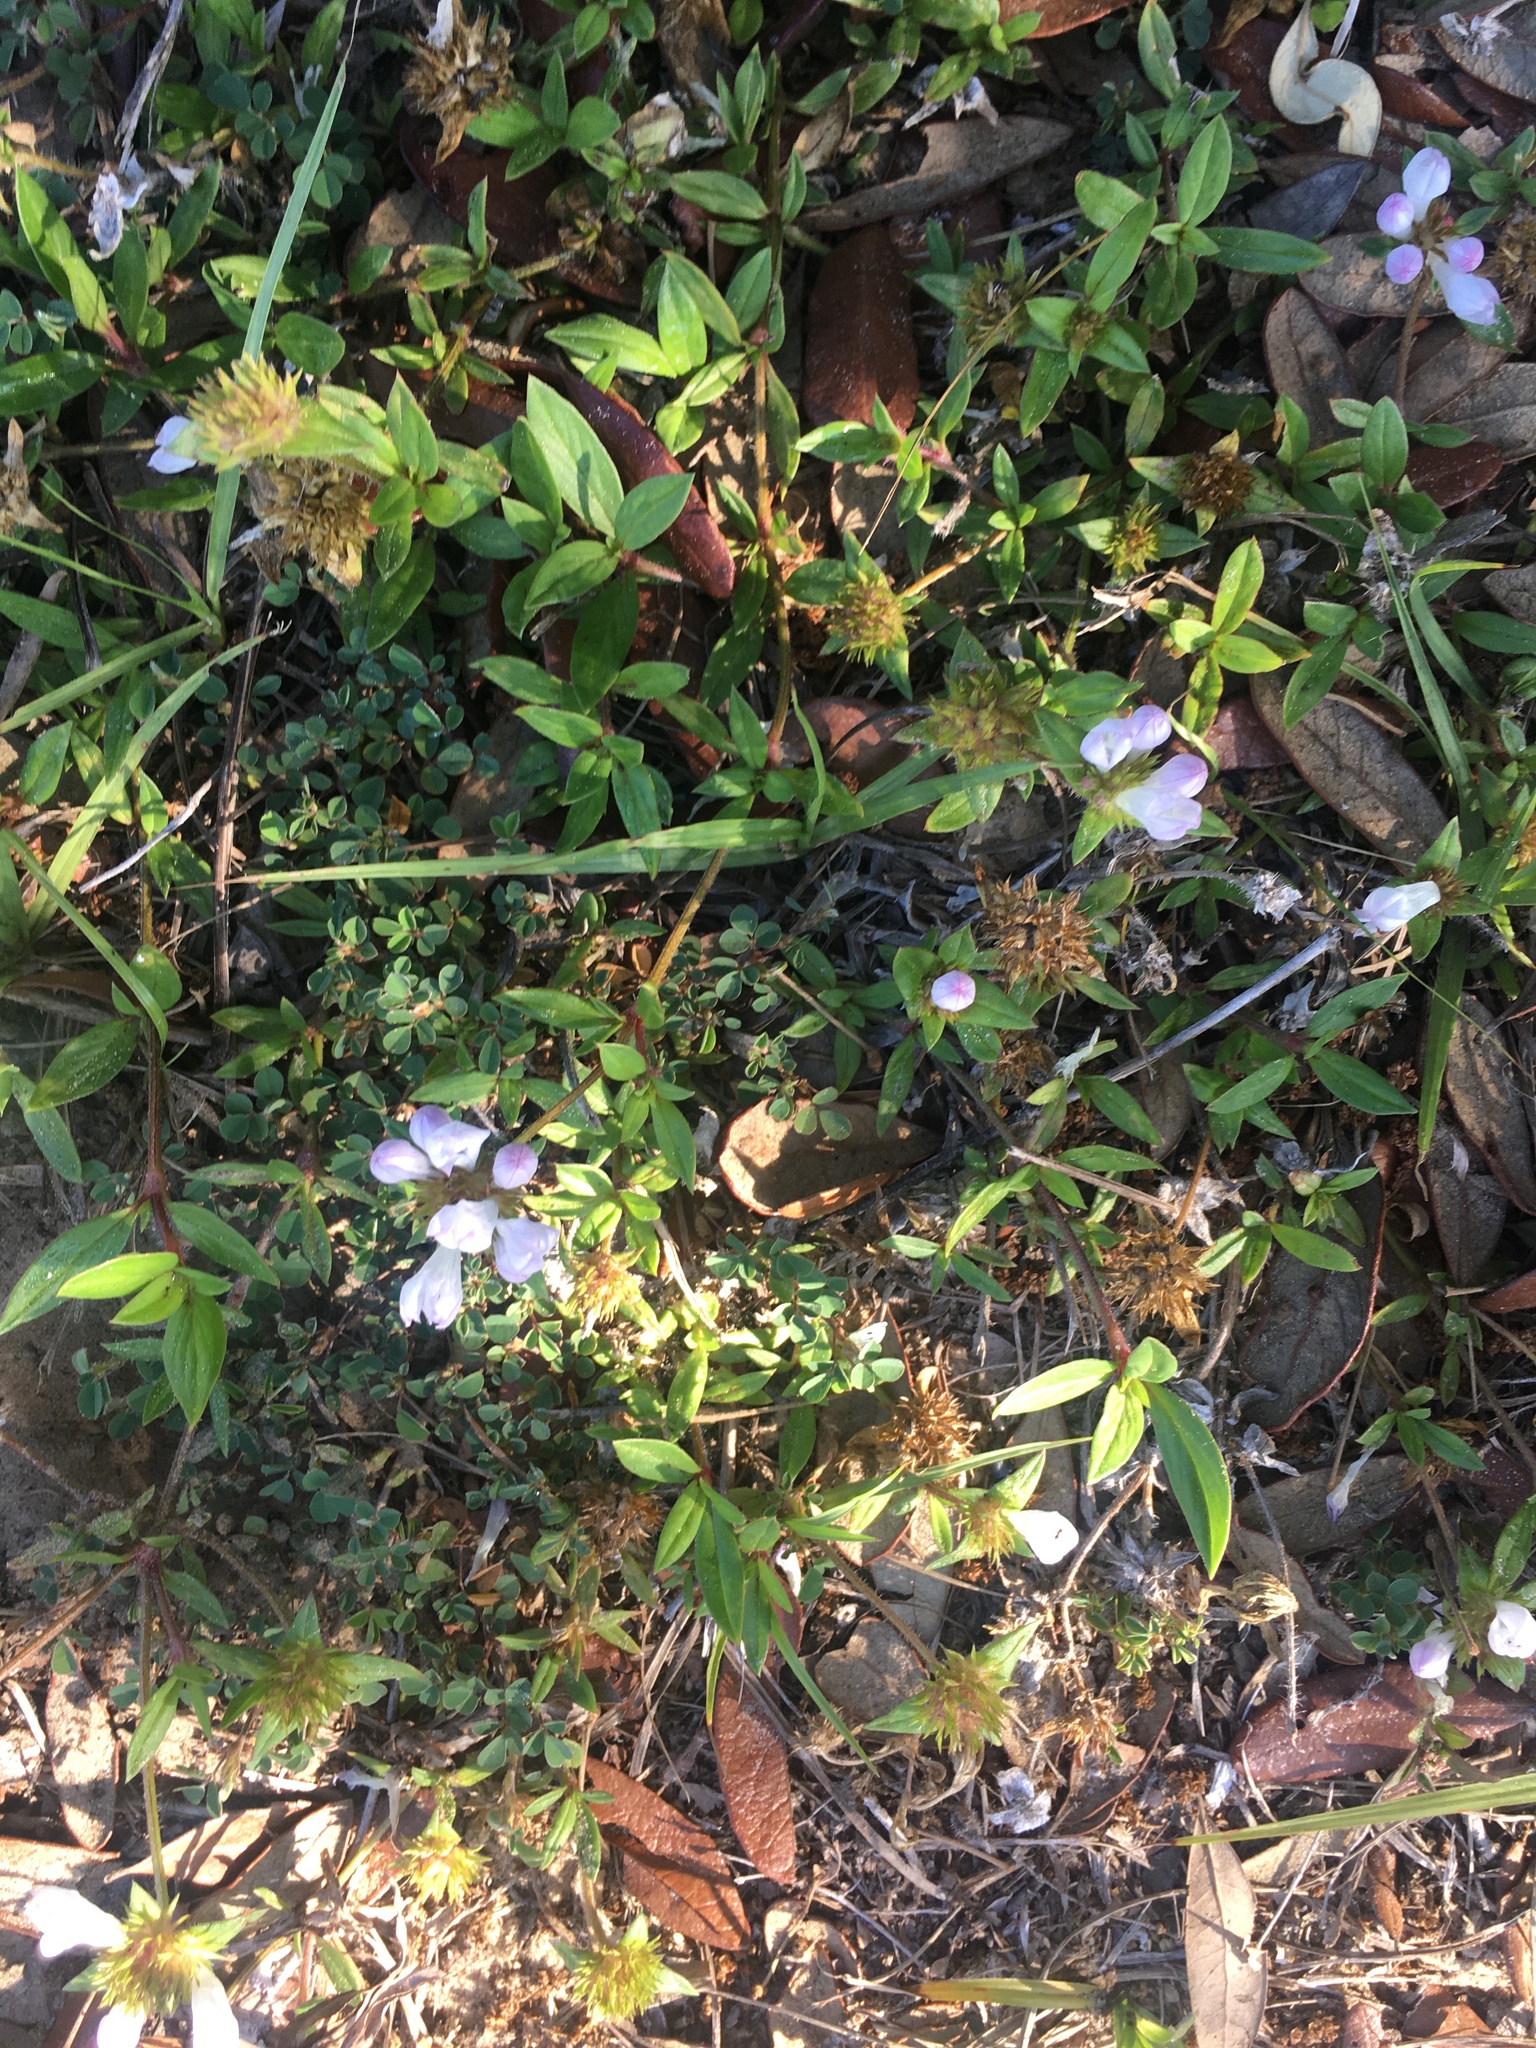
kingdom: Plantae
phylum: Tracheophyta
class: Magnoliopsida
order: Gentianales
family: Rubiaceae
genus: Richardia
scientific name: Richardia grandiflora
